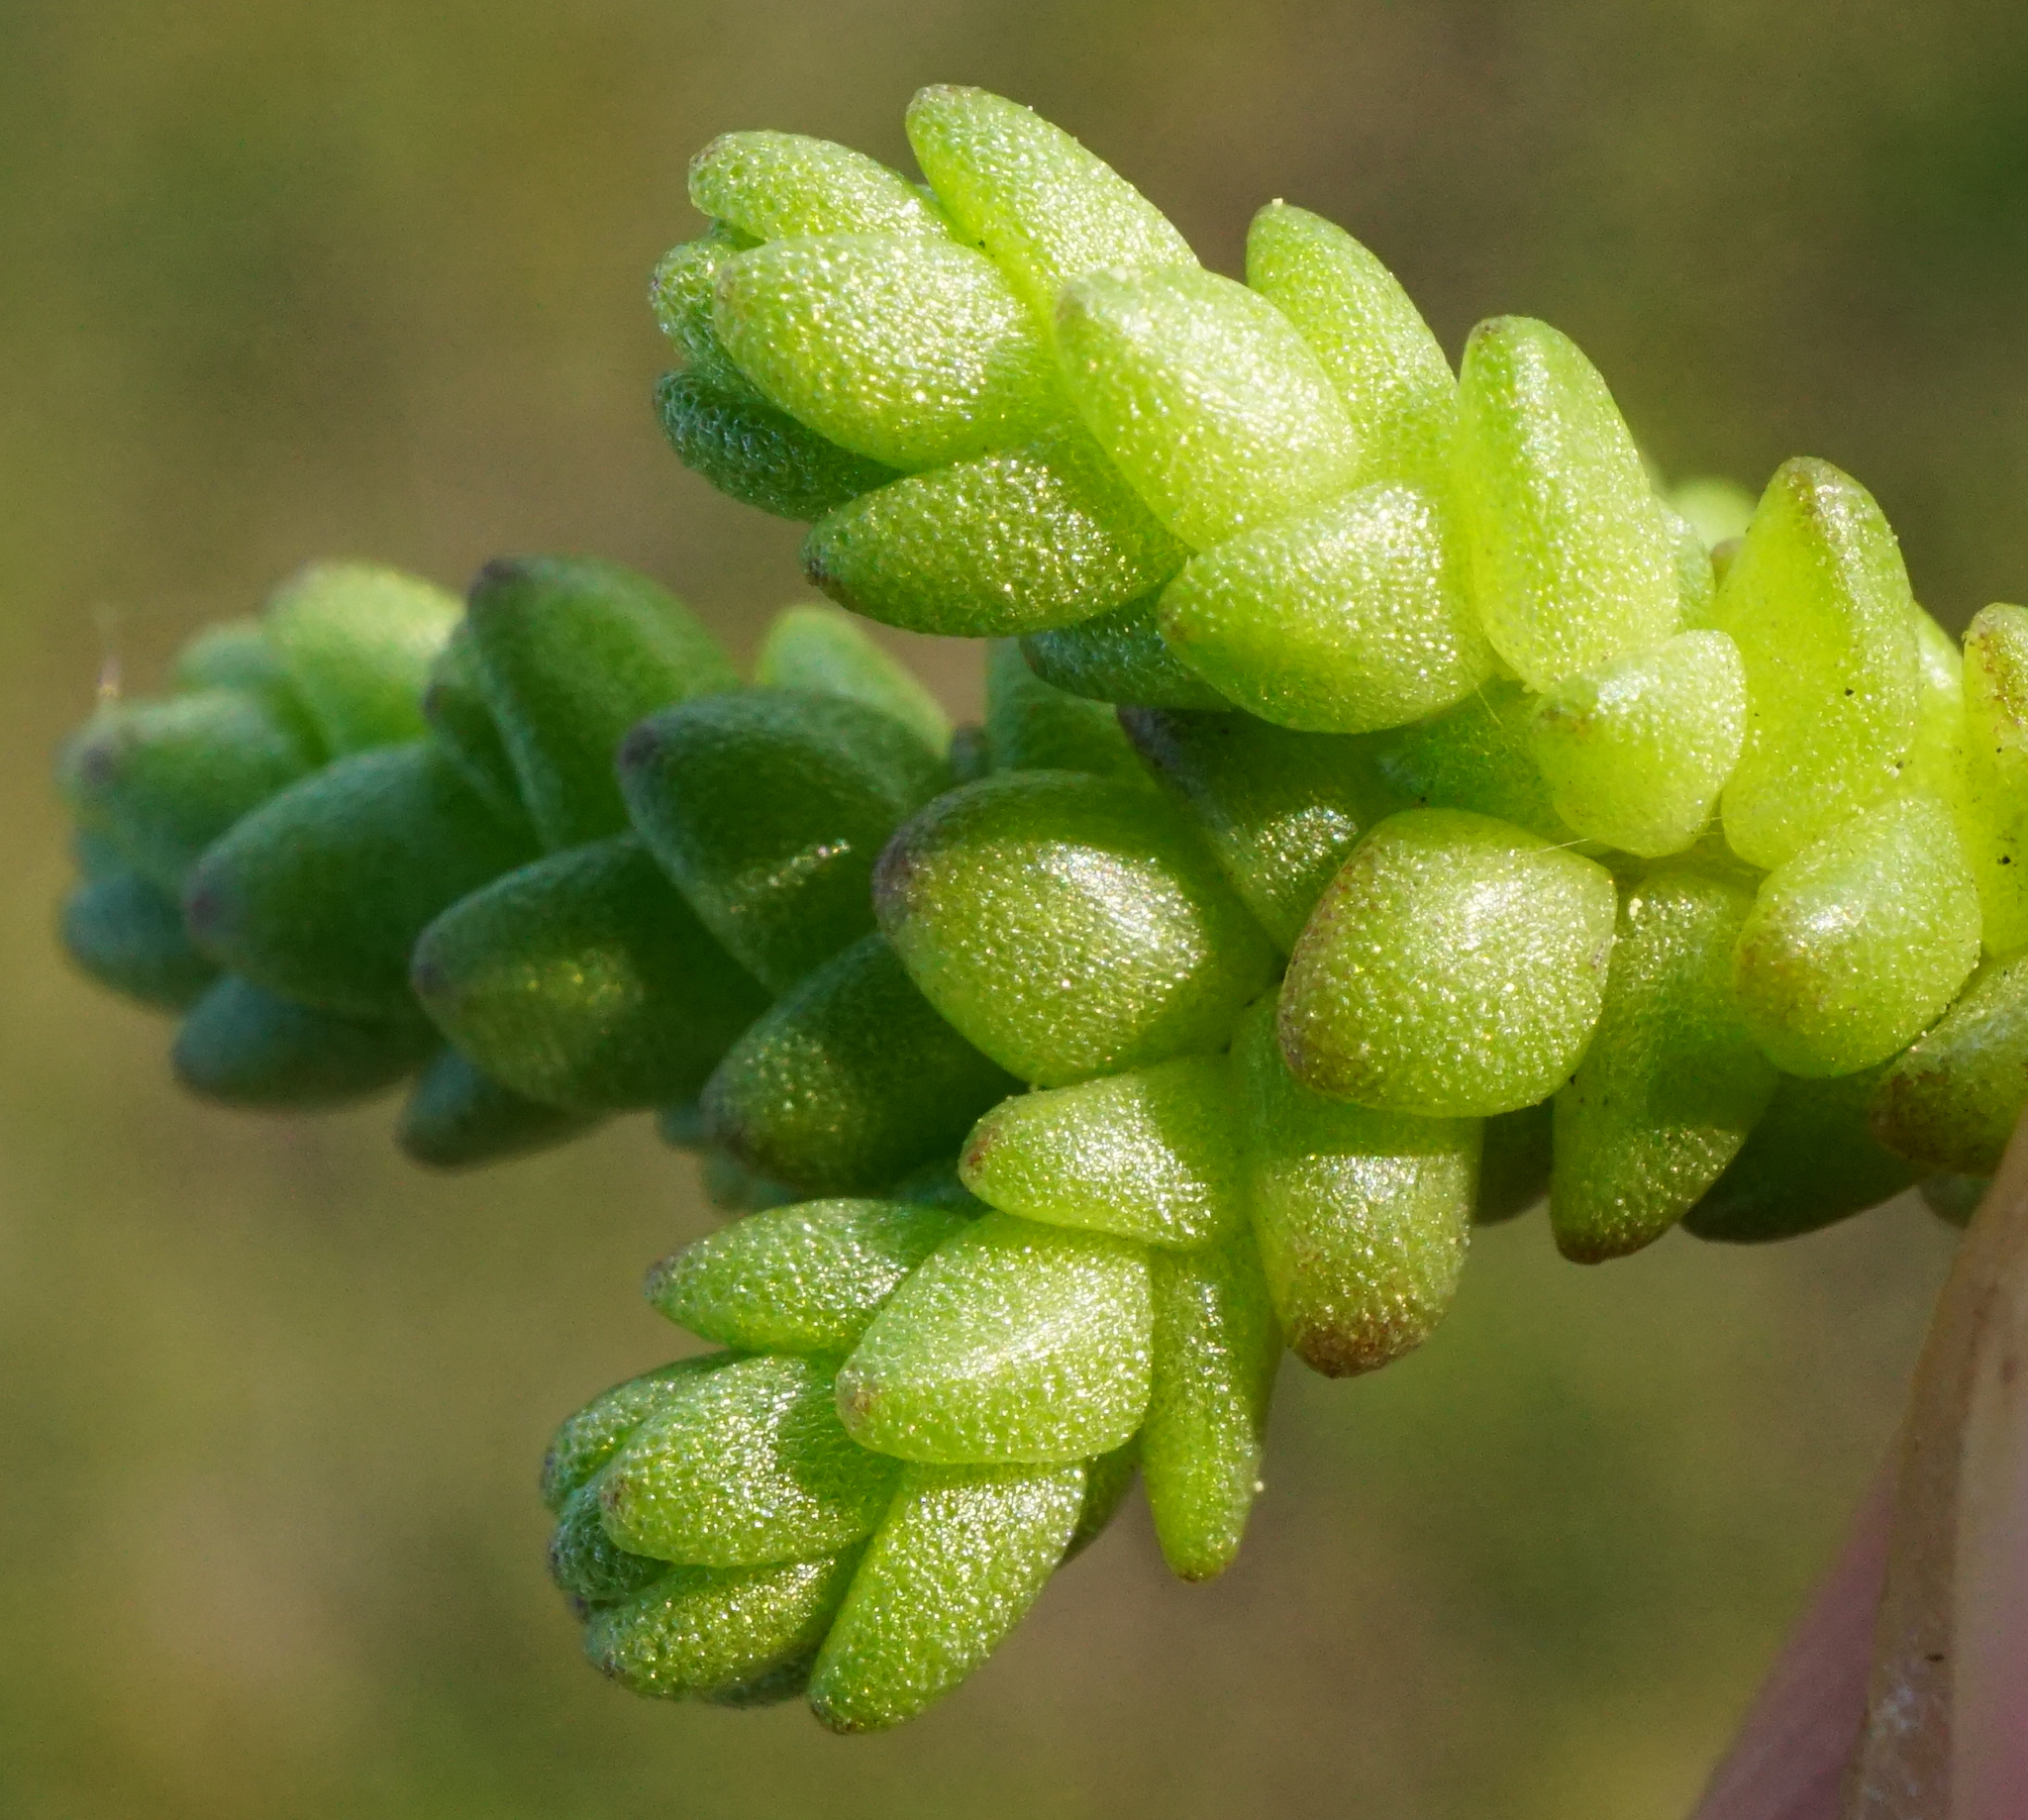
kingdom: Plantae
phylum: Tracheophyta
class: Magnoliopsida
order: Saxifragales
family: Crassulaceae
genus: Sedum
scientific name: Sedum acre
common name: Biting stonecrop
